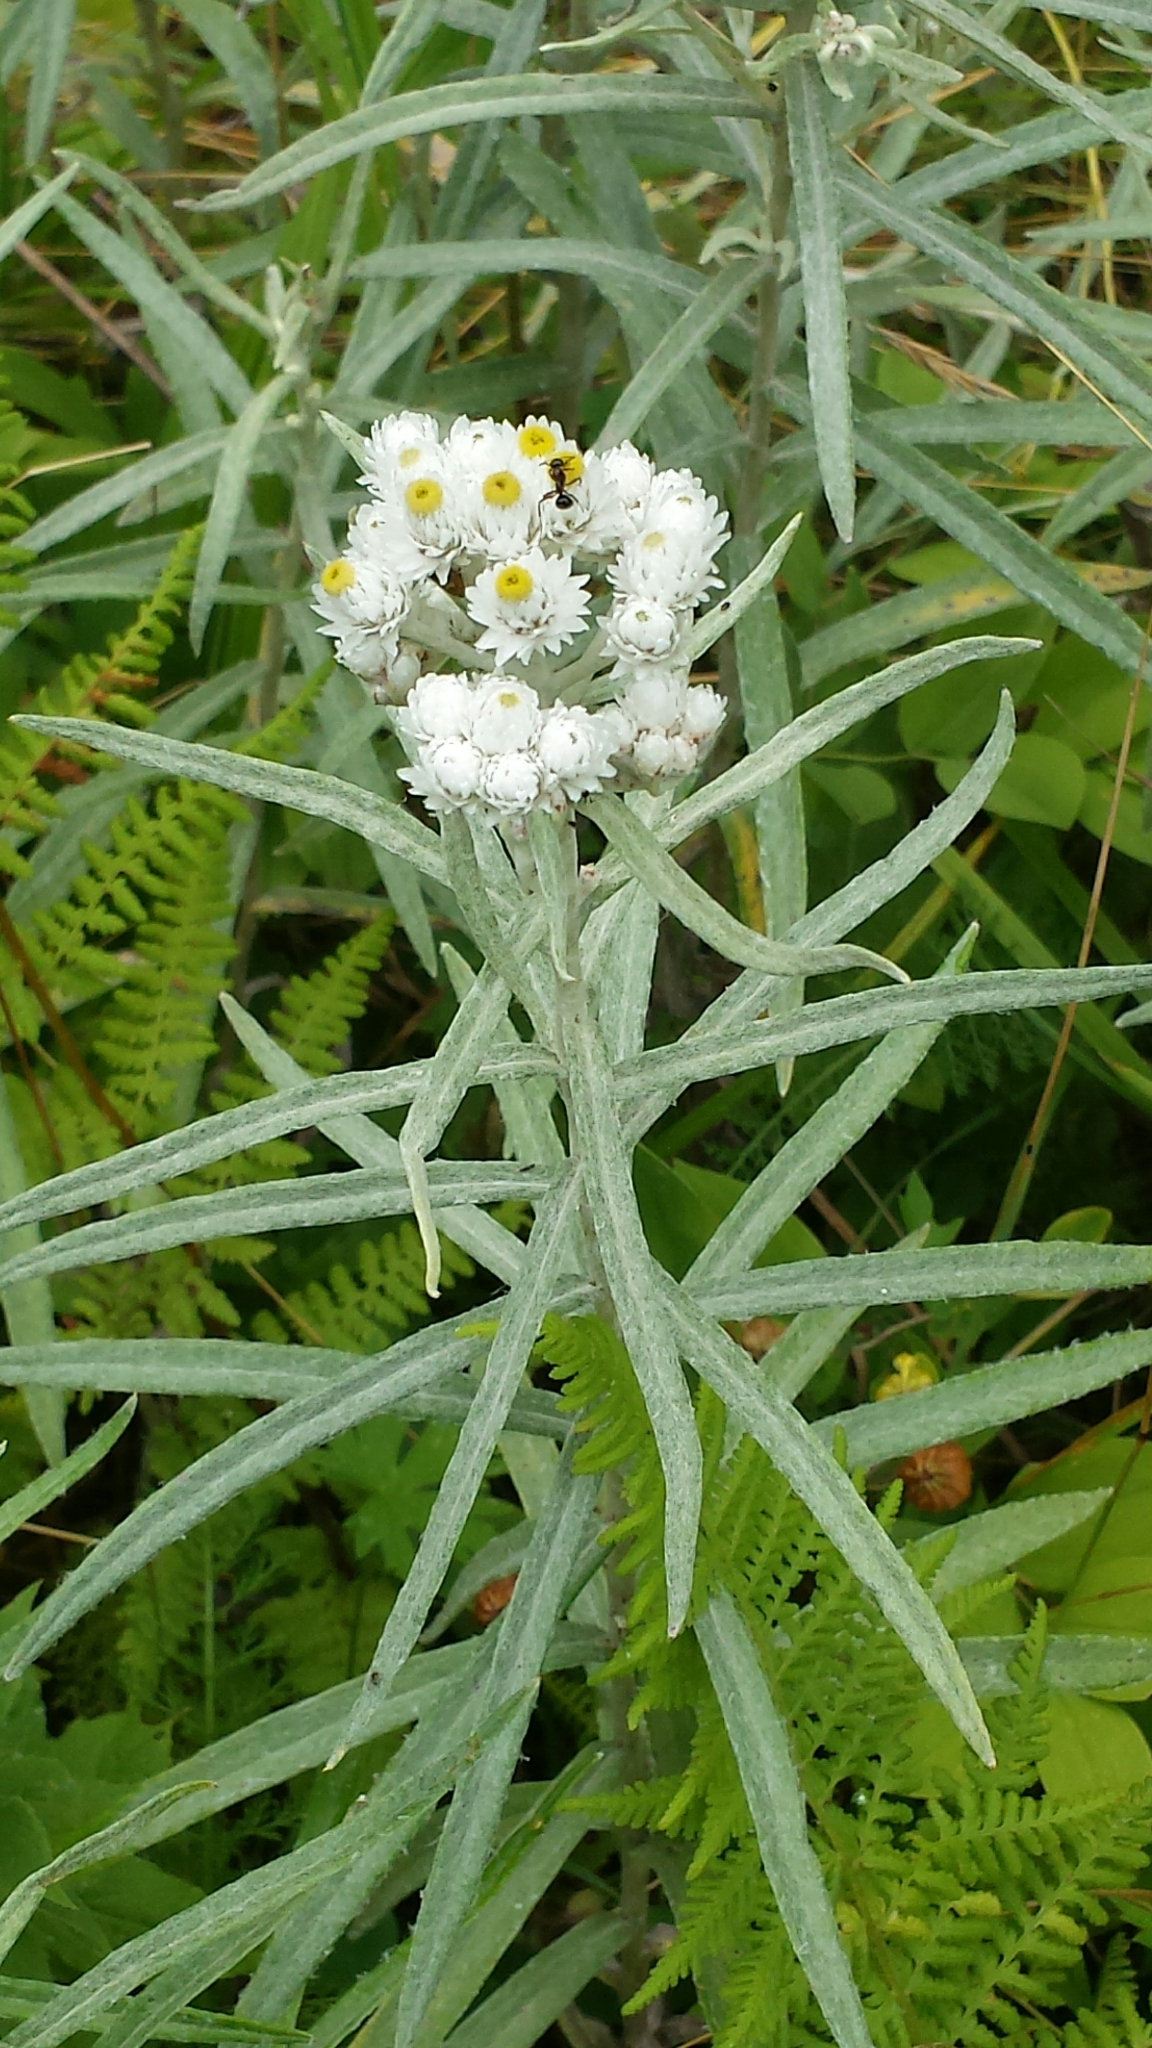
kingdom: Plantae
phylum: Tracheophyta
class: Magnoliopsida
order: Asterales
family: Asteraceae
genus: Anaphalis
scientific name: Anaphalis margaritacea
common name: Pearly everlasting
